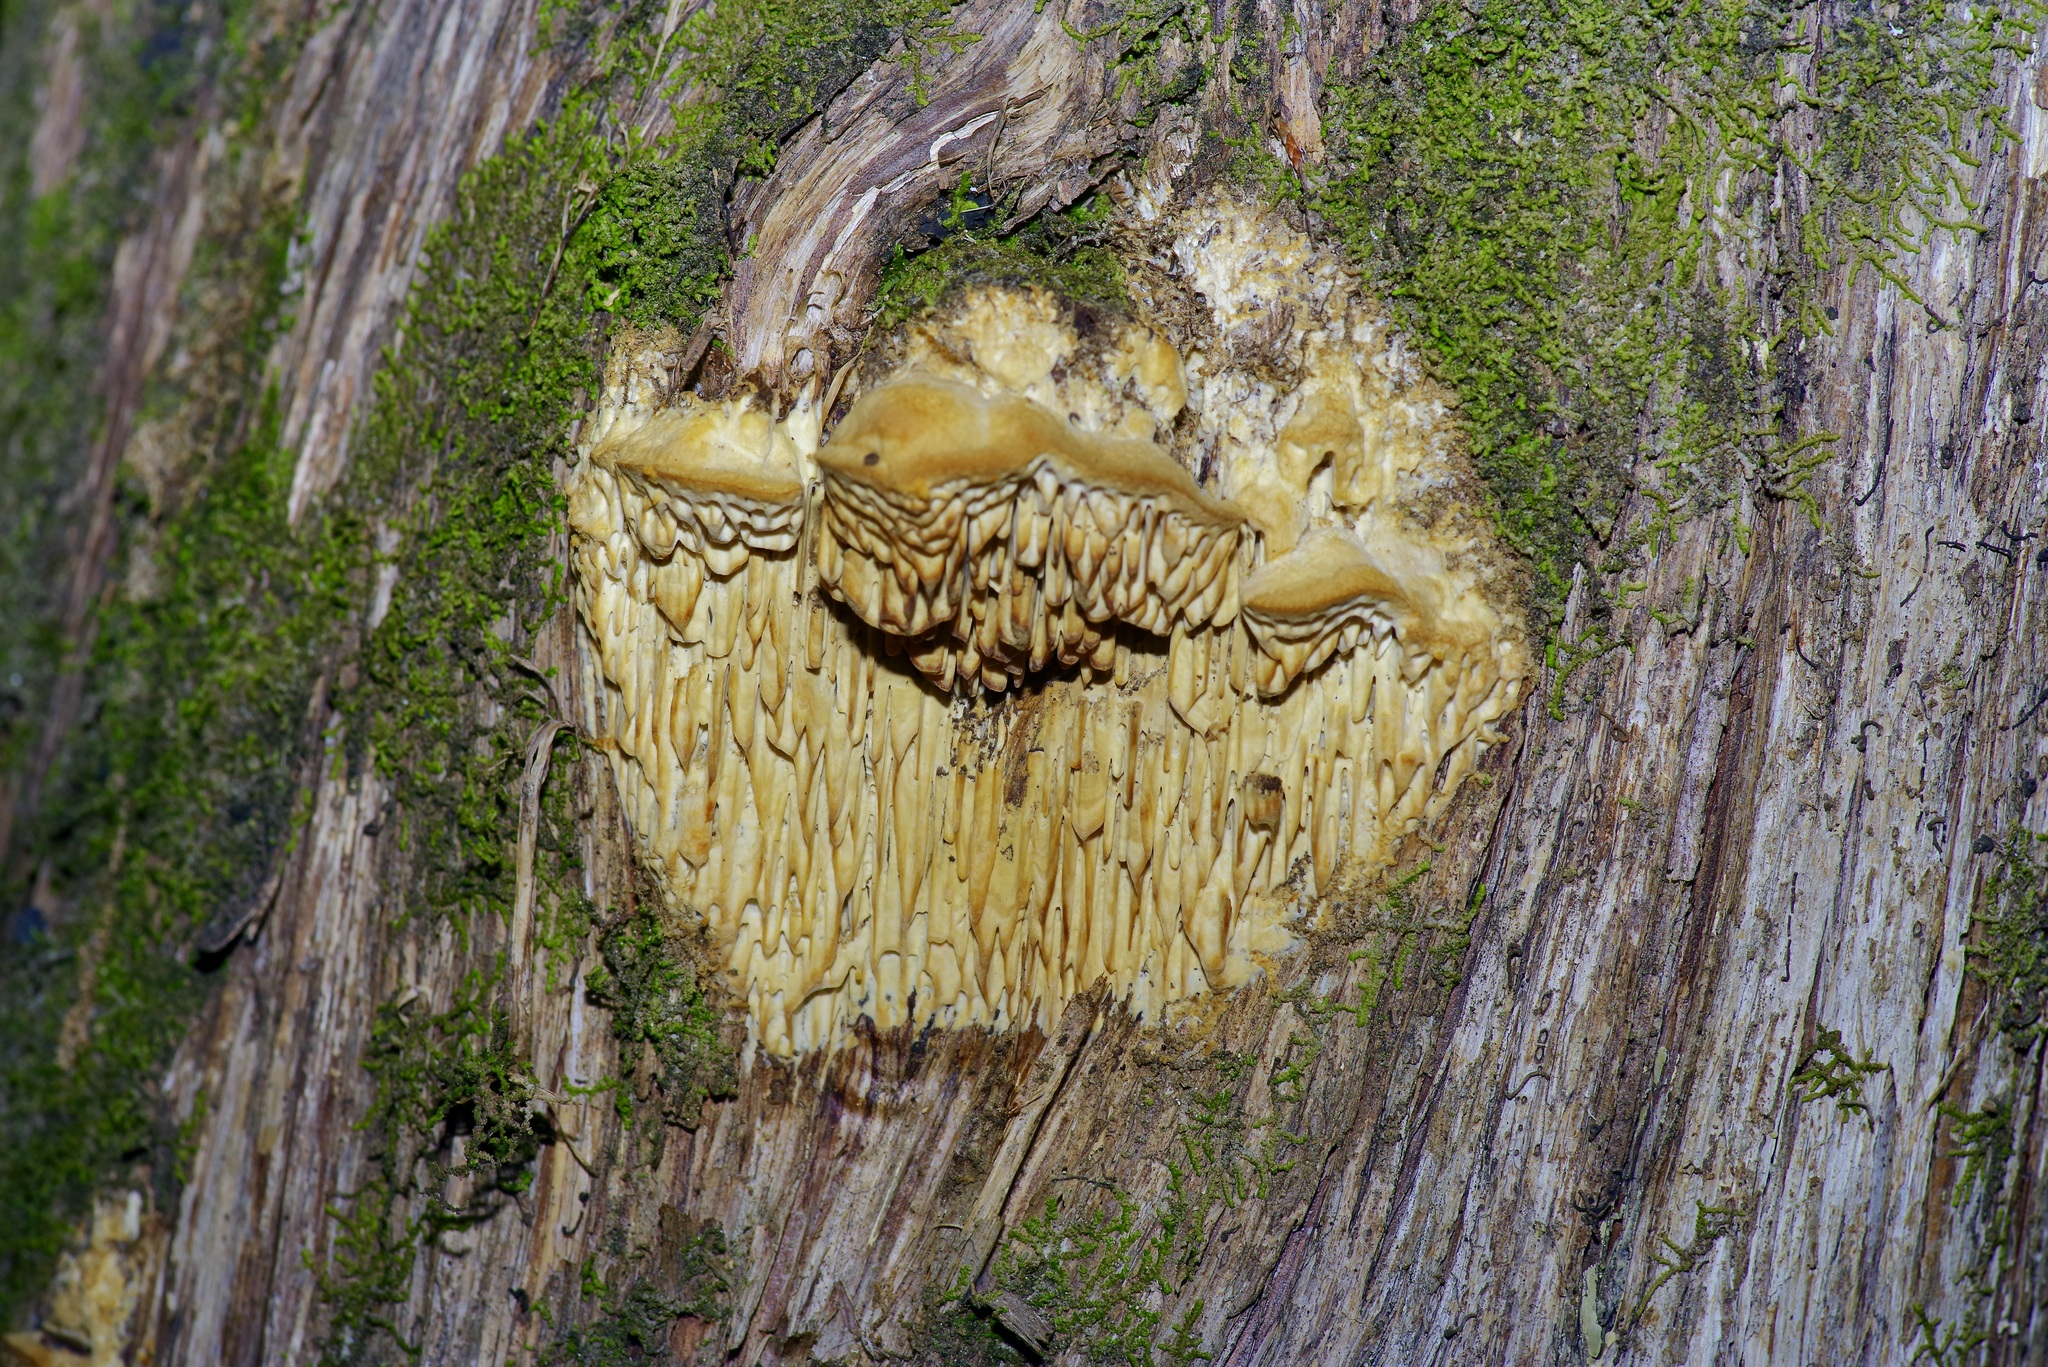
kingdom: Fungi
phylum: Basidiomycota
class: Agaricomycetes
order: Polyporales
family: Fomitopsidaceae
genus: Fomitopsis
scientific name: Fomitopsis
